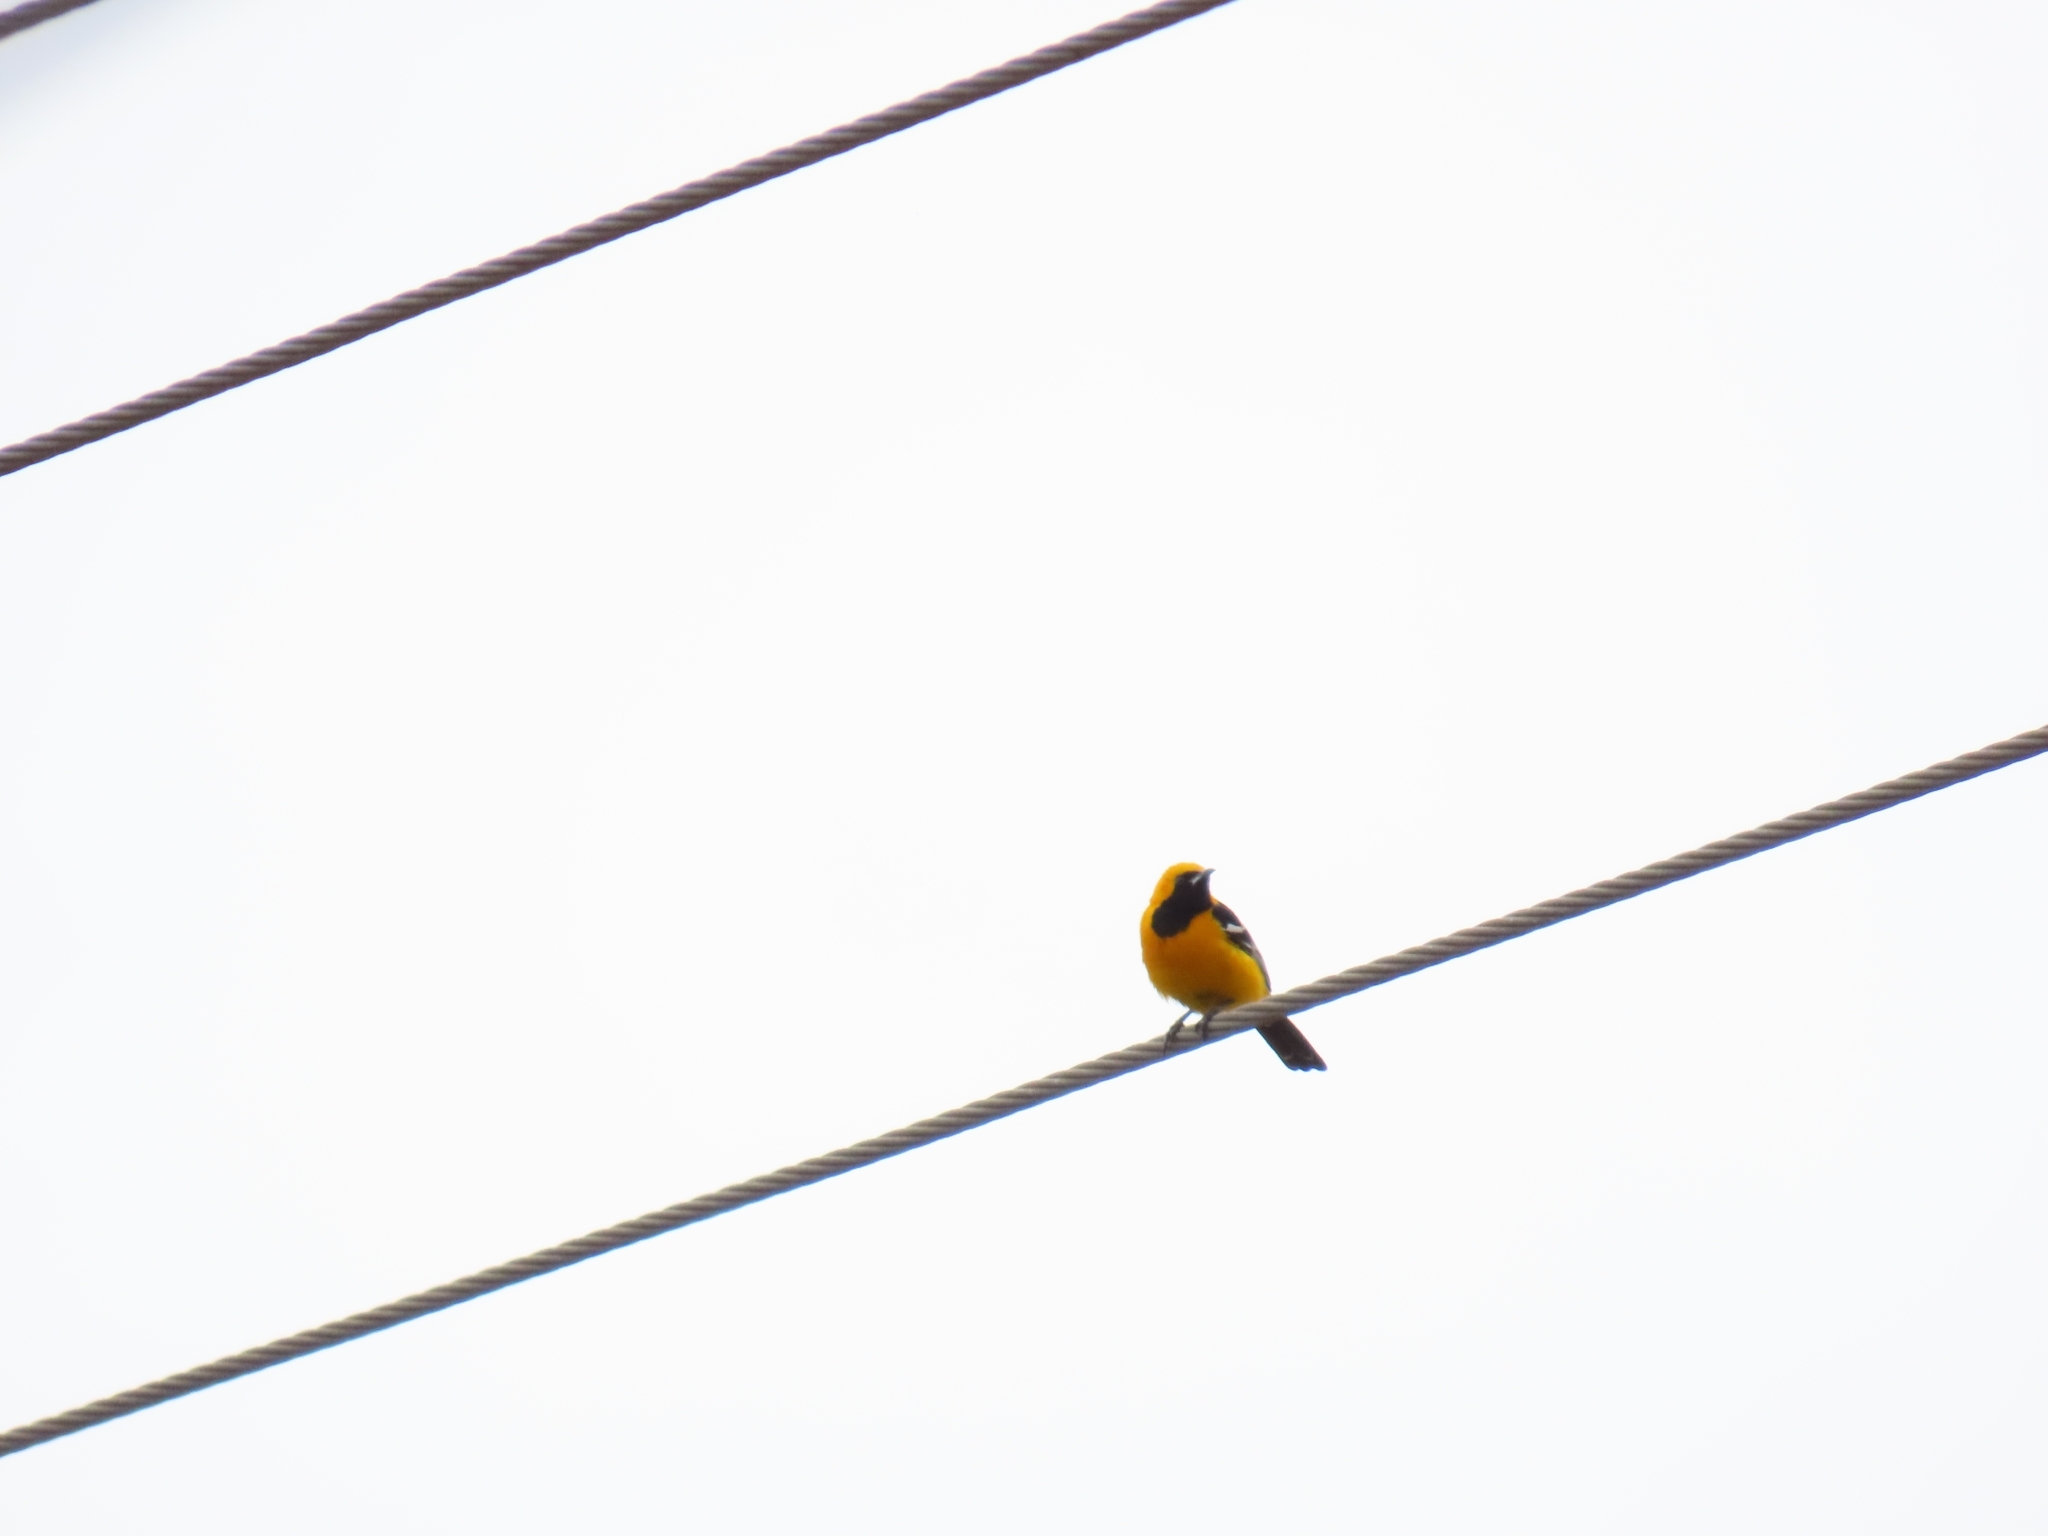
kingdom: Animalia
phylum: Chordata
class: Aves
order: Passeriformes
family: Icteridae
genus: Icterus
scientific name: Icterus cucullatus
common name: Hooded oriole
